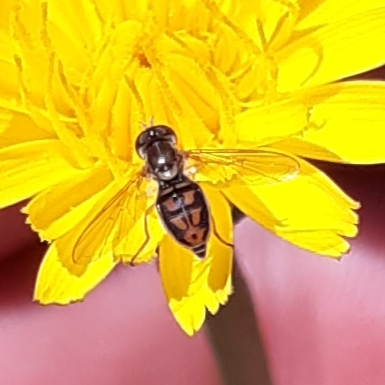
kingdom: Animalia
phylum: Arthropoda
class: Insecta
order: Diptera
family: Syrphidae
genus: Toxomerus
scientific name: Toxomerus marginatus
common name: Syrphid fly
